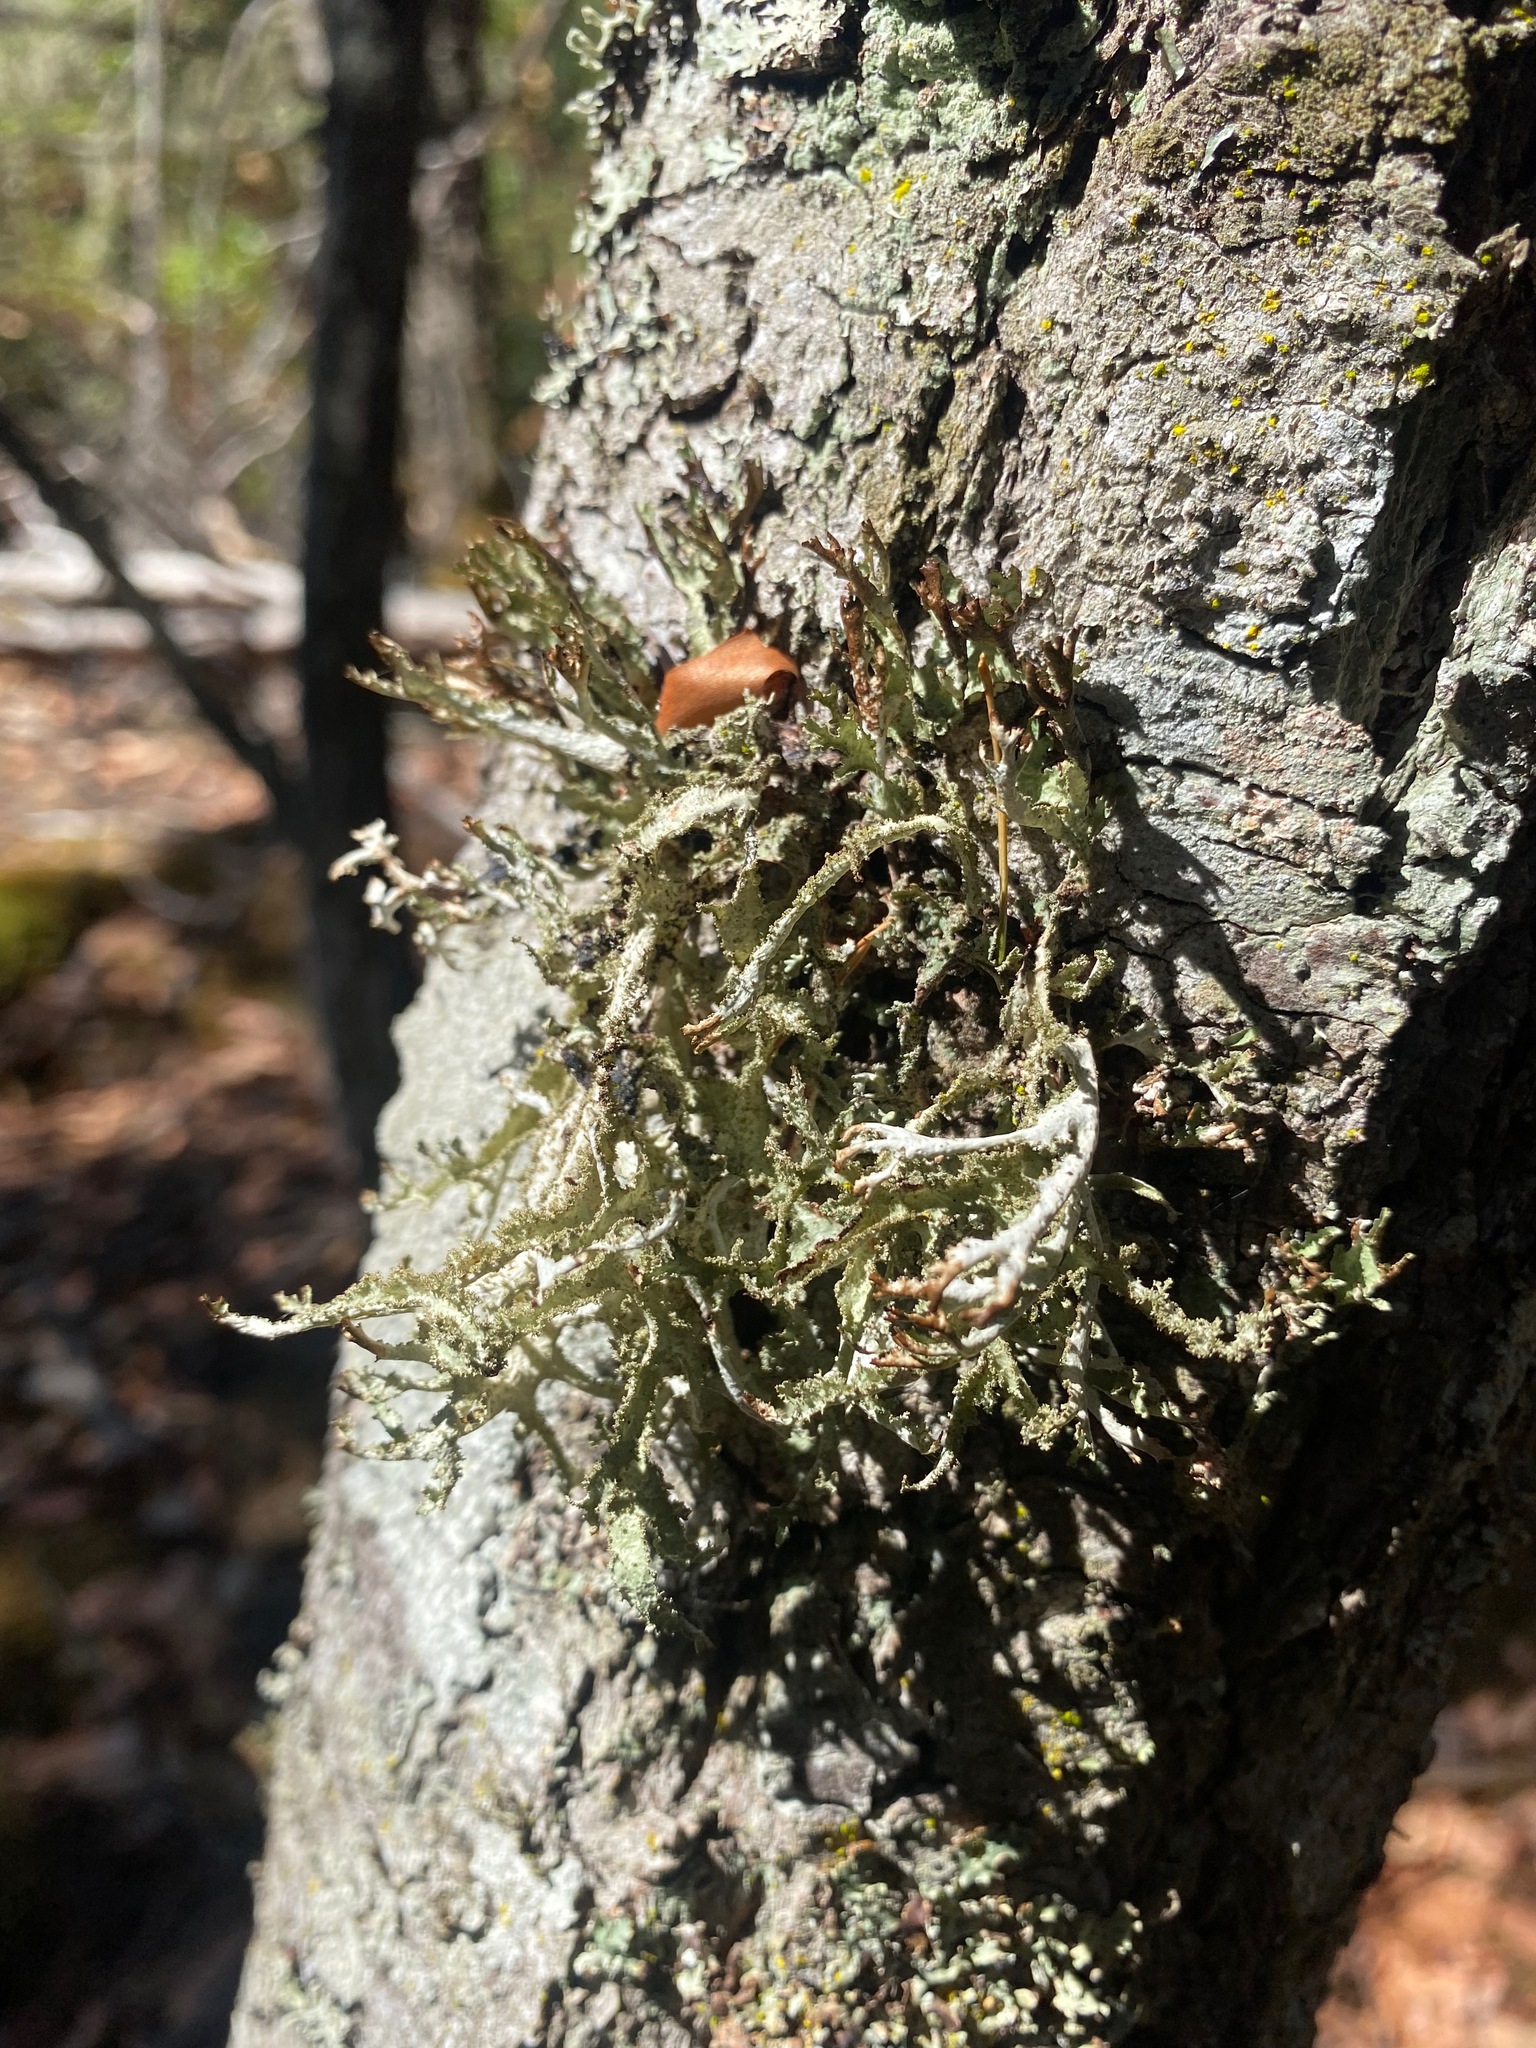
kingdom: Fungi
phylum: Ascomycota
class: Lecanoromycetes
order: Lecanorales
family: Parmeliaceae
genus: Platismatia
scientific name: Platismatia herrei
